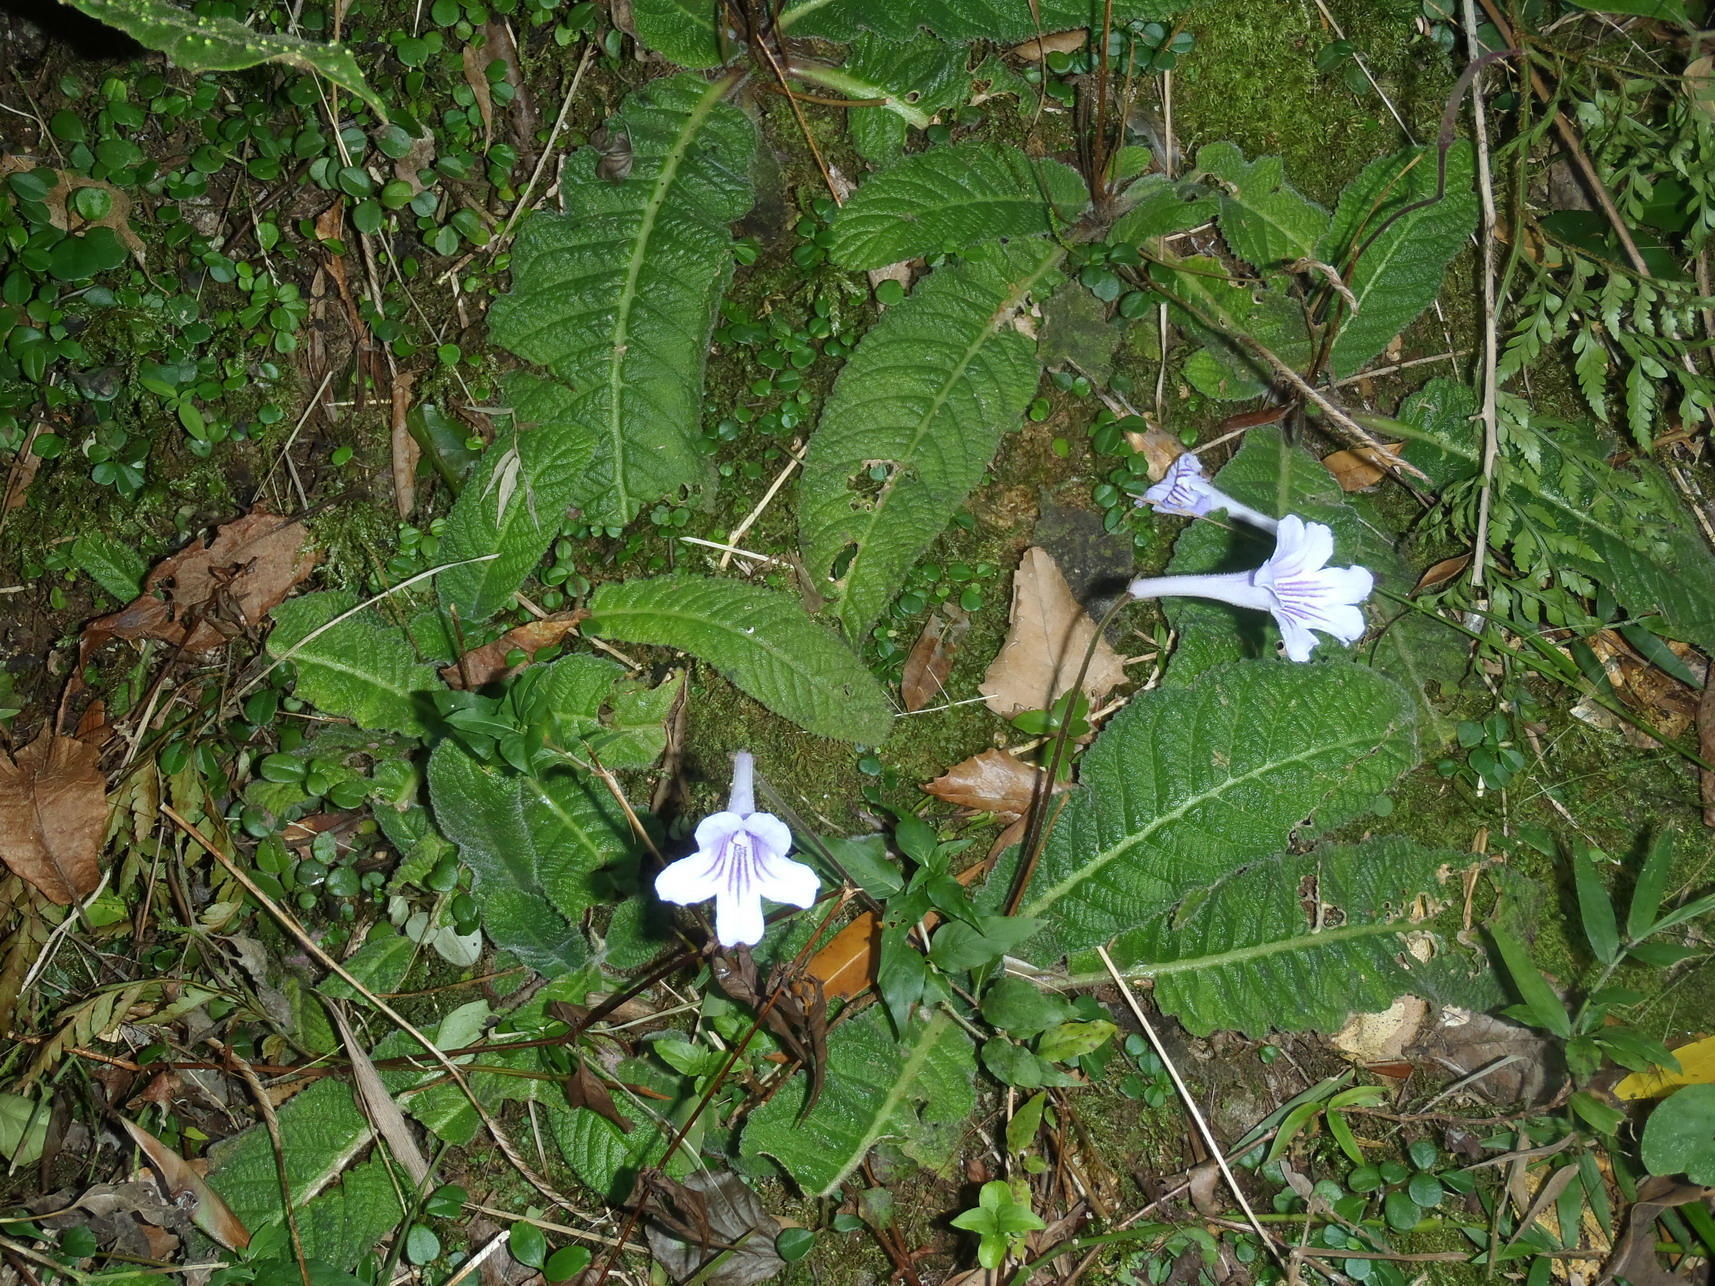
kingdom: Plantae
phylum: Tracheophyta
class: Magnoliopsida
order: Lamiales
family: Gesneriaceae
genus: Streptocarpus
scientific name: Streptocarpus rexii
